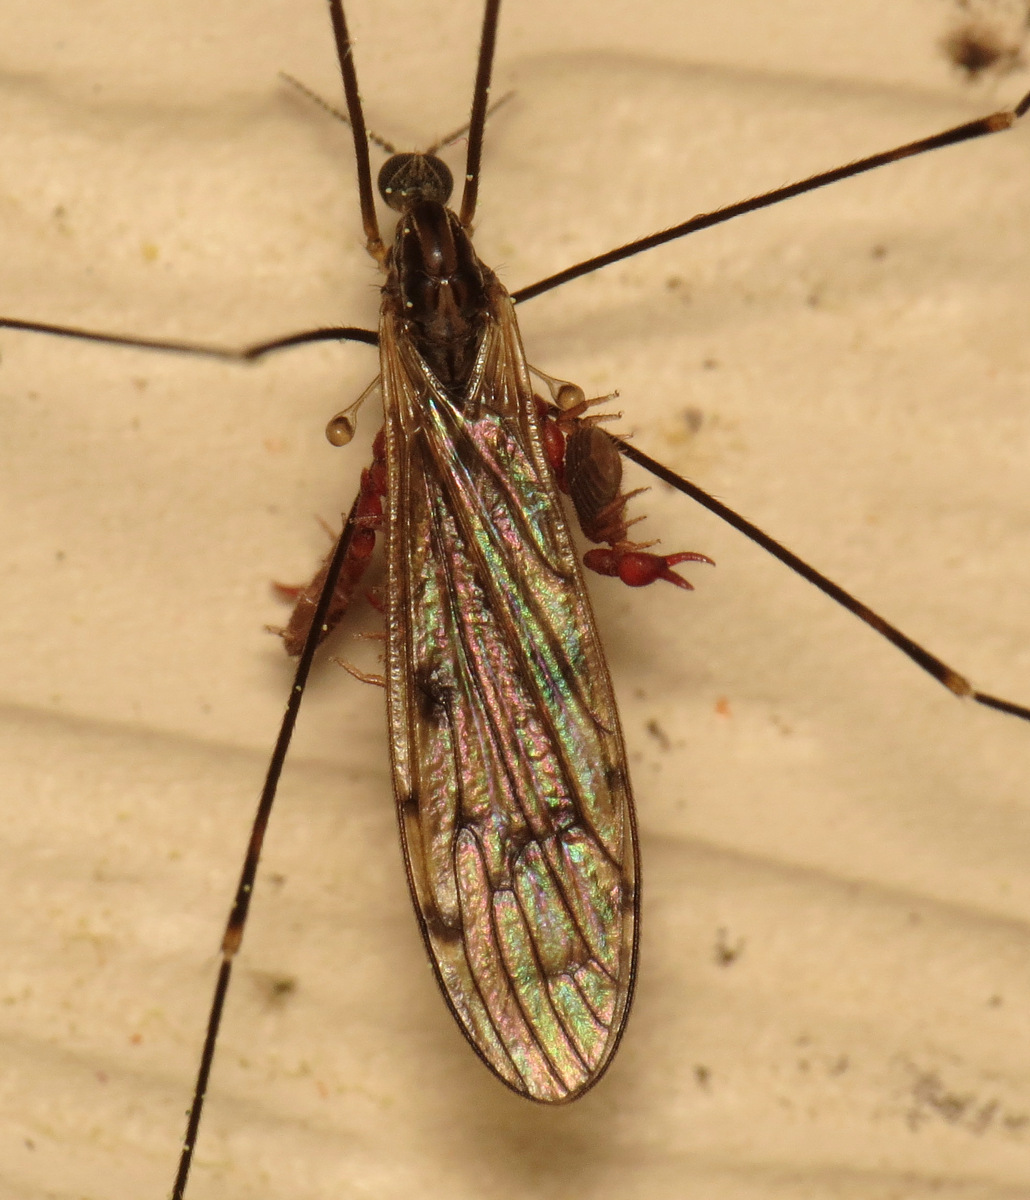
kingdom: Animalia
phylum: Arthropoda
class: Insecta
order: Diptera
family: Limoniidae
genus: Metalimnobia
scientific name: Metalimnobia novaeangliae
